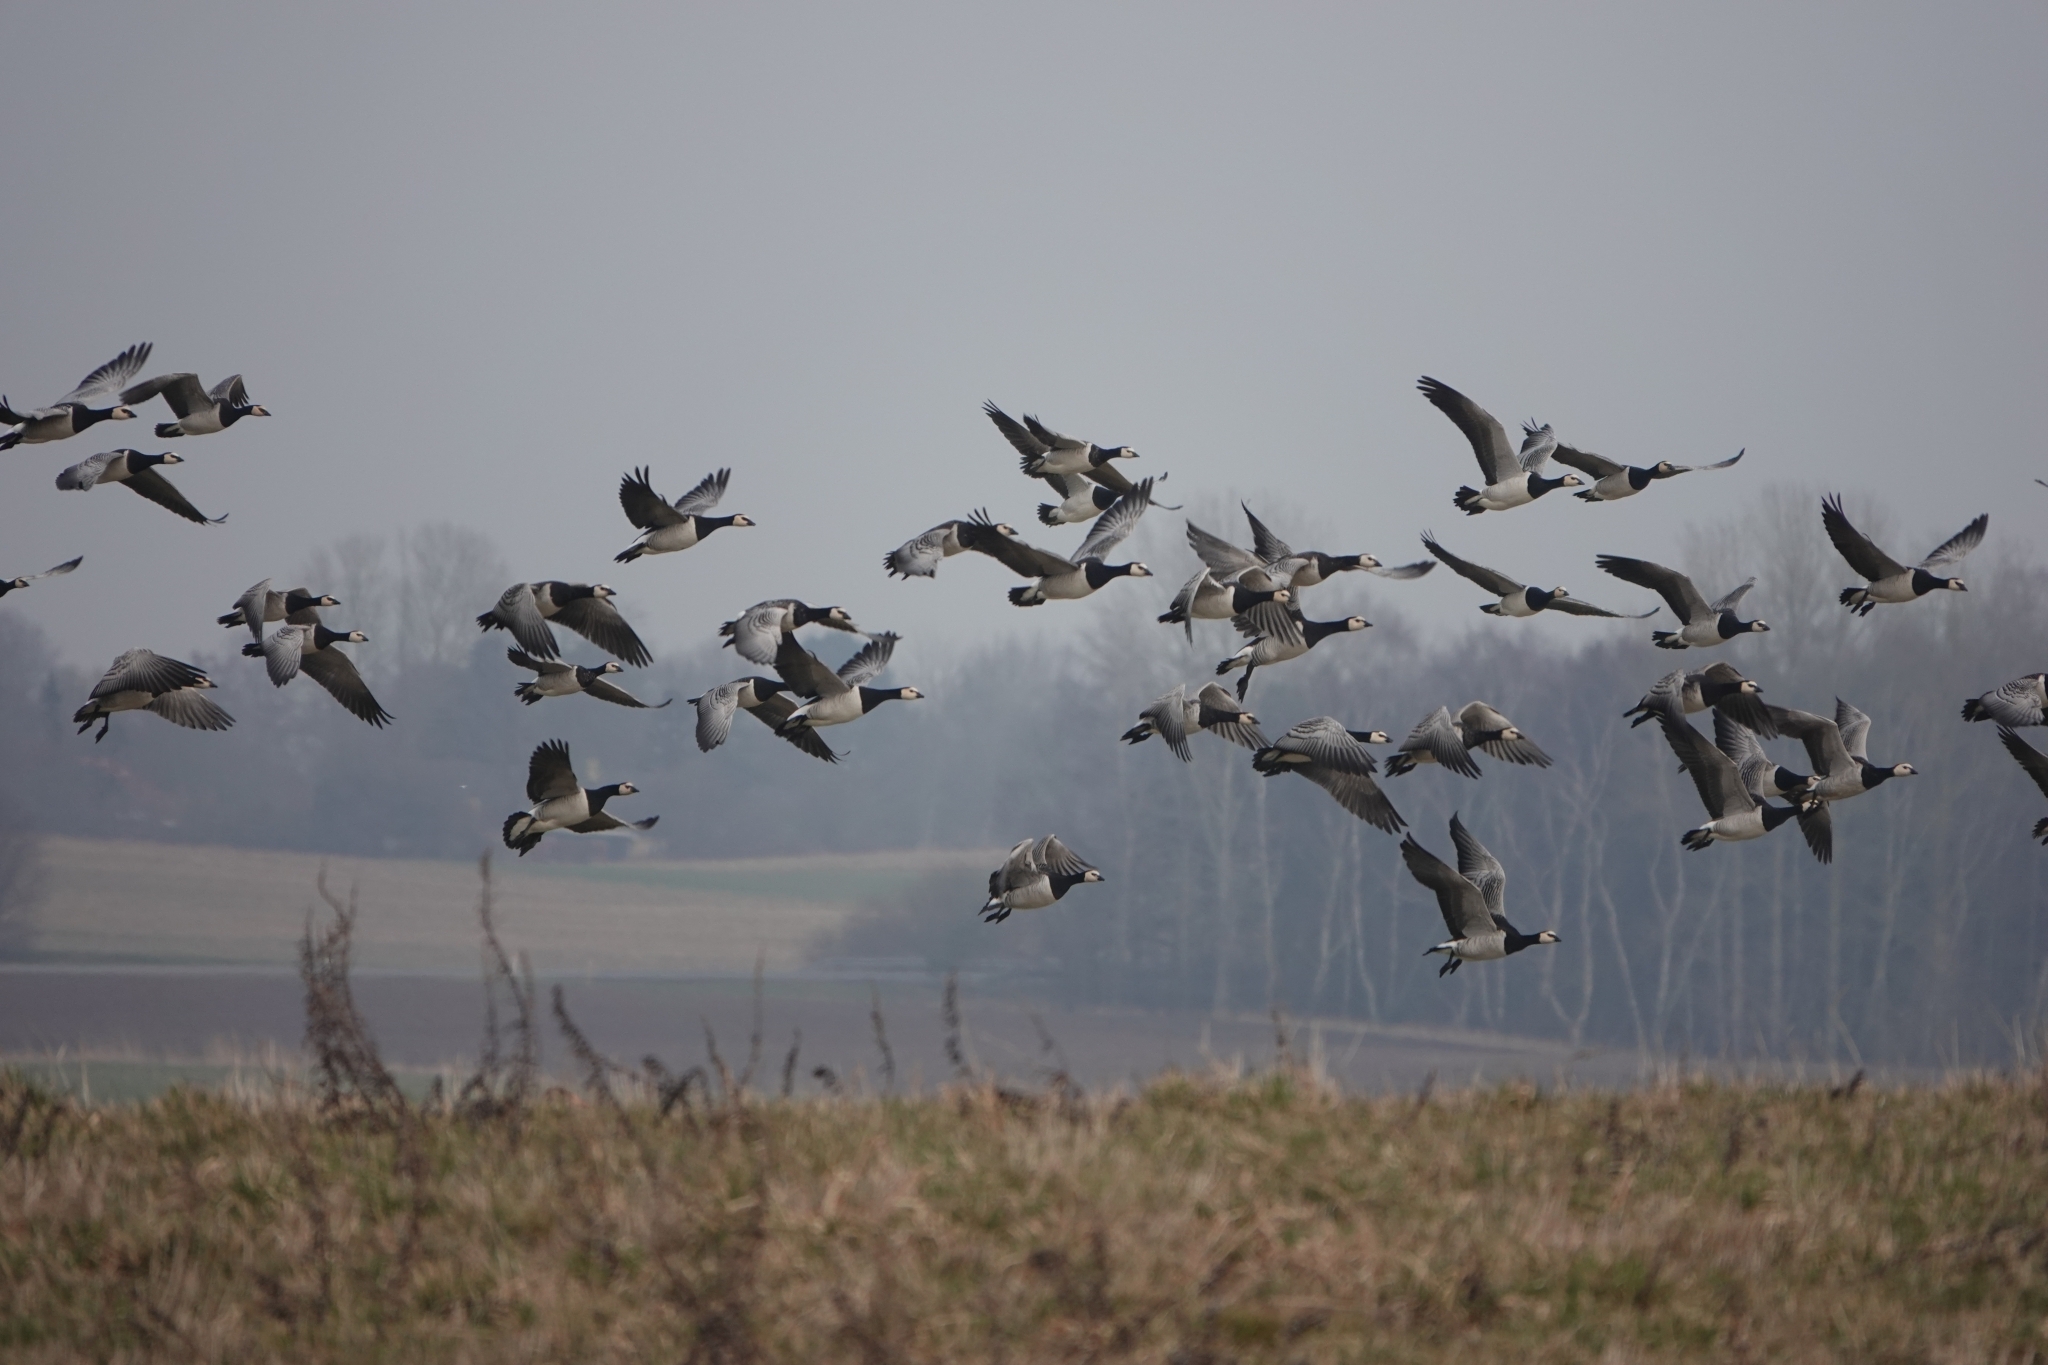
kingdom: Animalia
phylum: Chordata
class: Aves
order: Anseriformes
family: Anatidae
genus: Branta
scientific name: Branta leucopsis
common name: Barnacle goose
